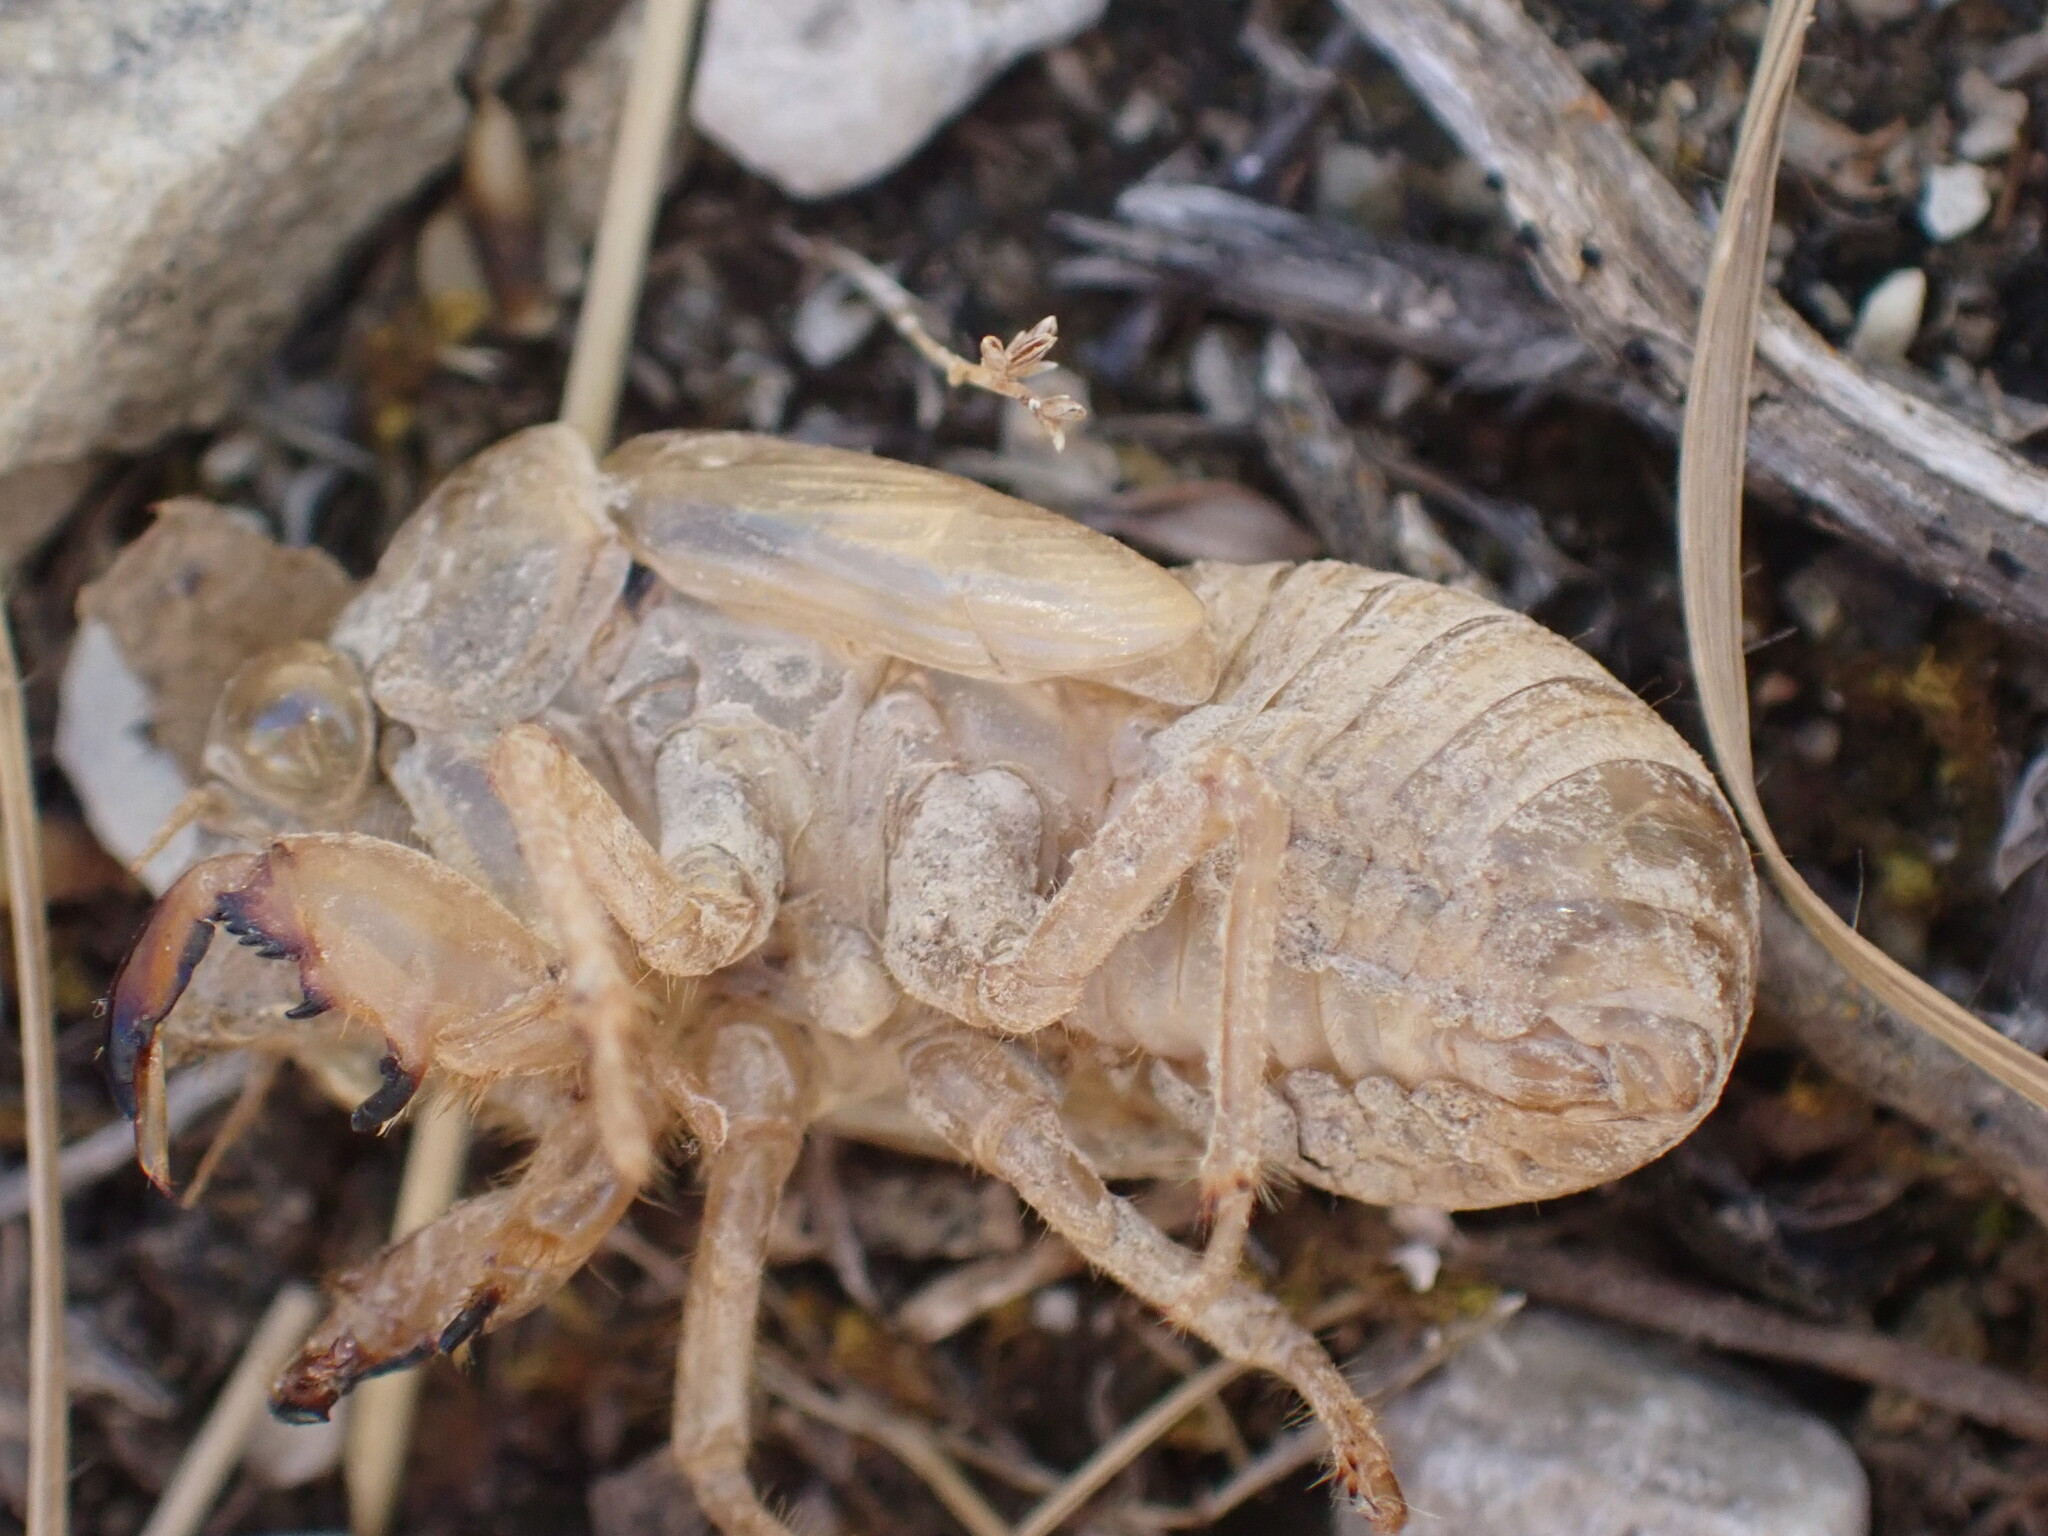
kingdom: Animalia
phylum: Arthropoda
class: Insecta
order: Hemiptera
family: Cicadidae
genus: Lyristes
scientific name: Lyristes plebejus
